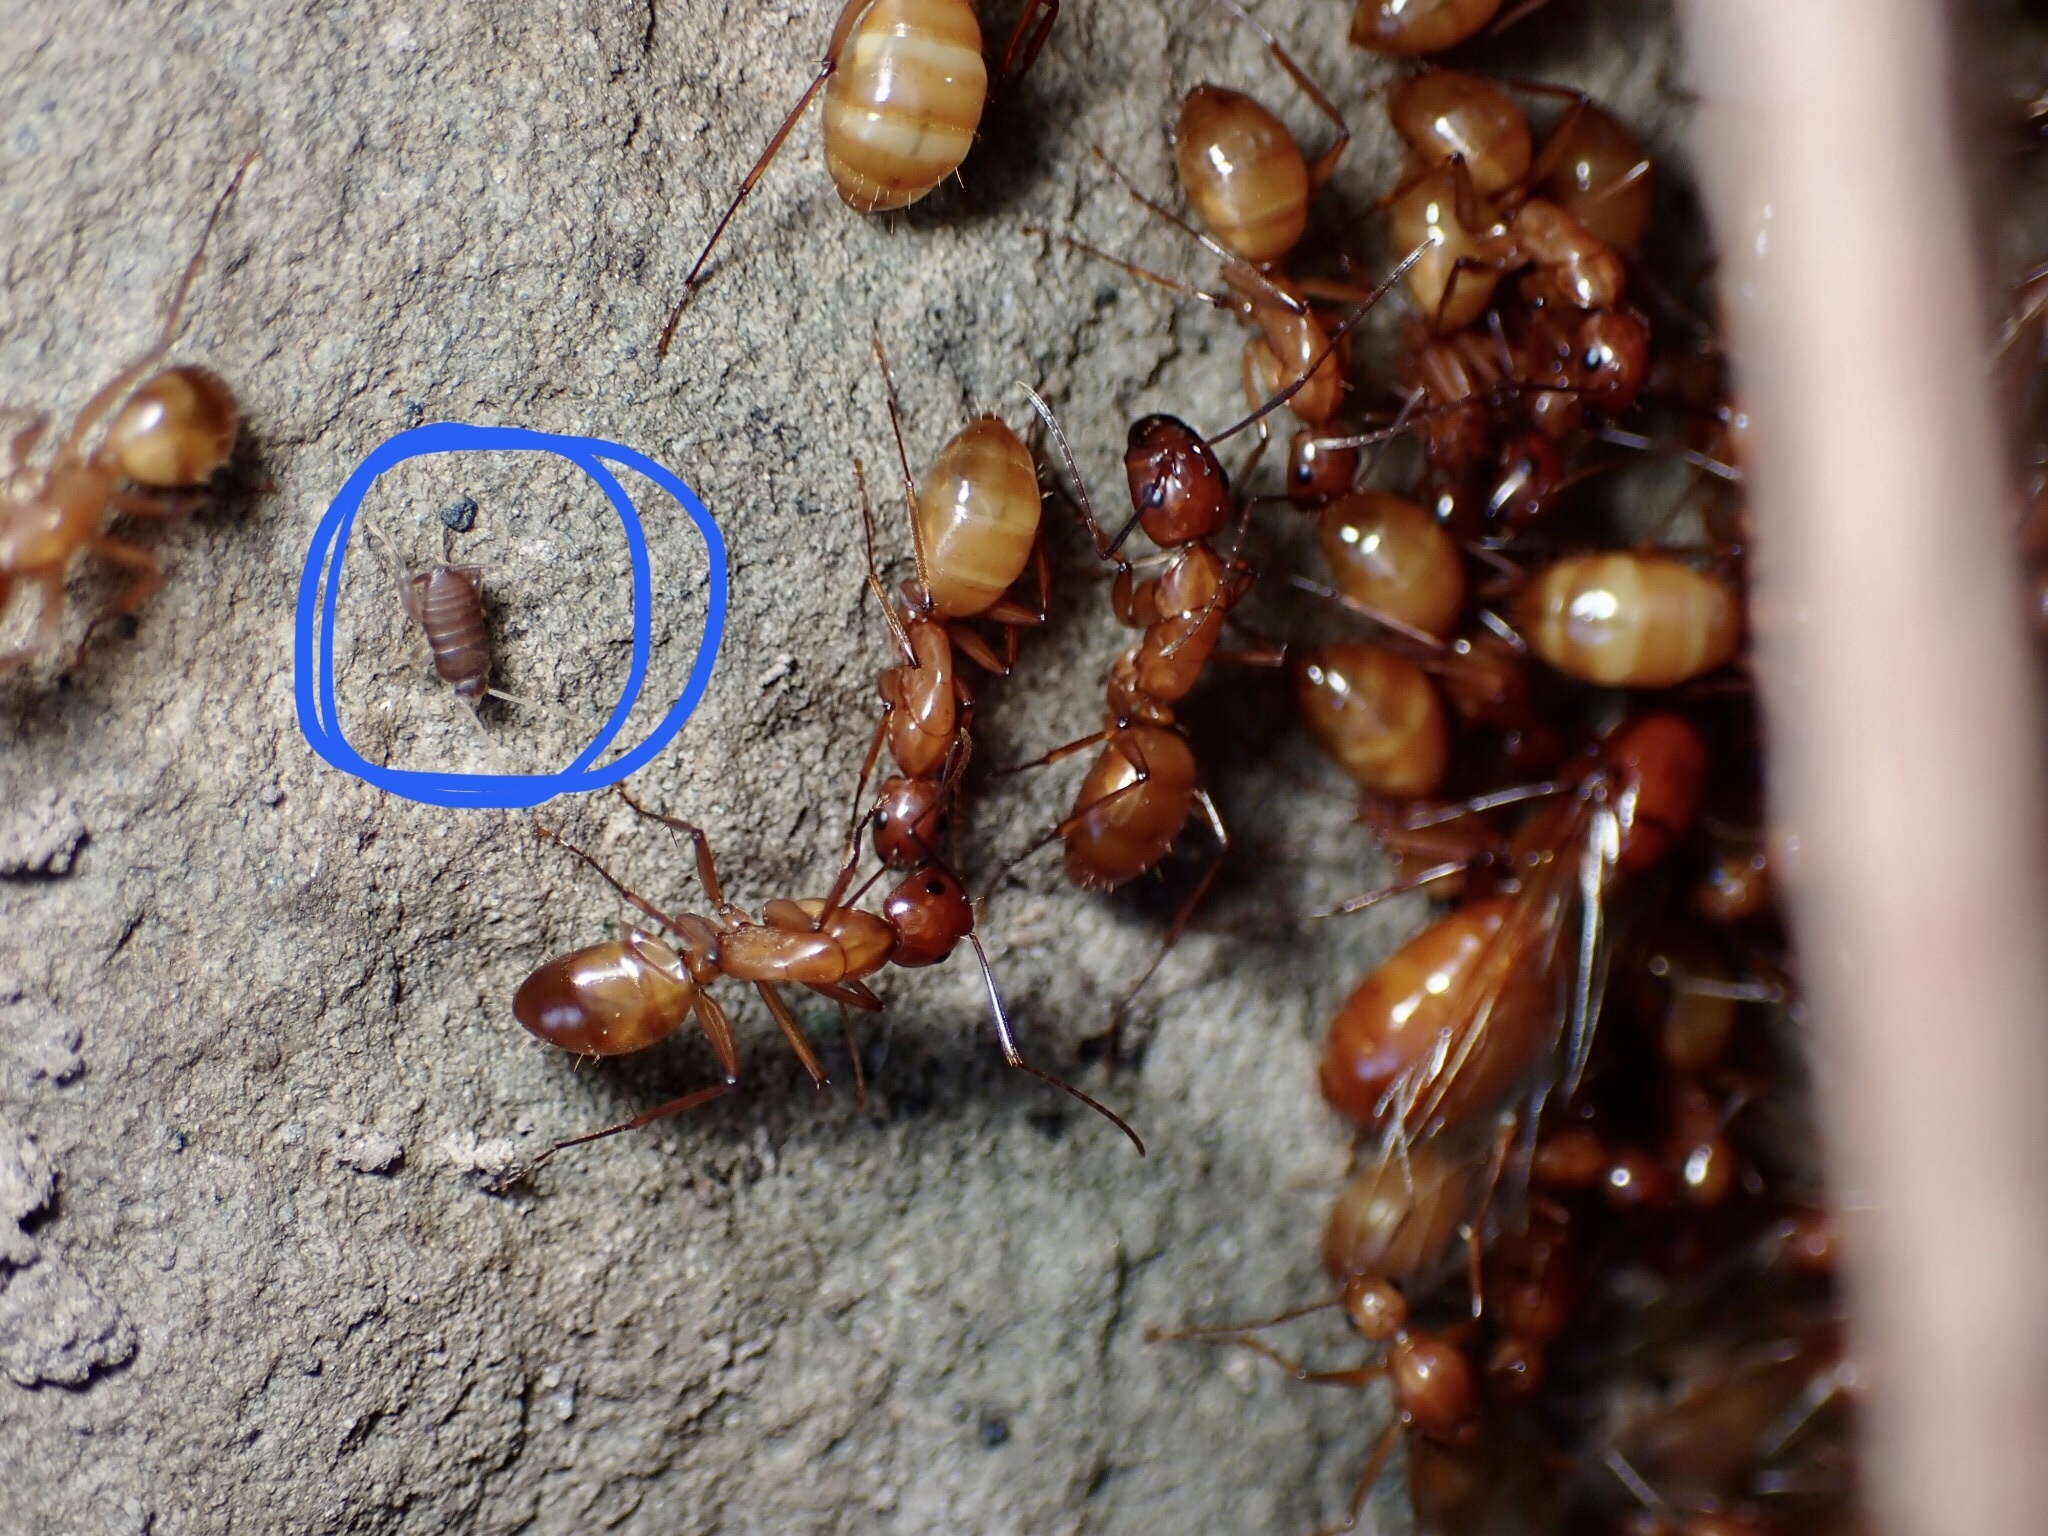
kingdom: Animalia
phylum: Arthropoda
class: Insecta
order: Orthoptera
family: Myrmecophilidae
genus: Myrmecophilus
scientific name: Myrmecophilus pergandei
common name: Eastern ant cricket
